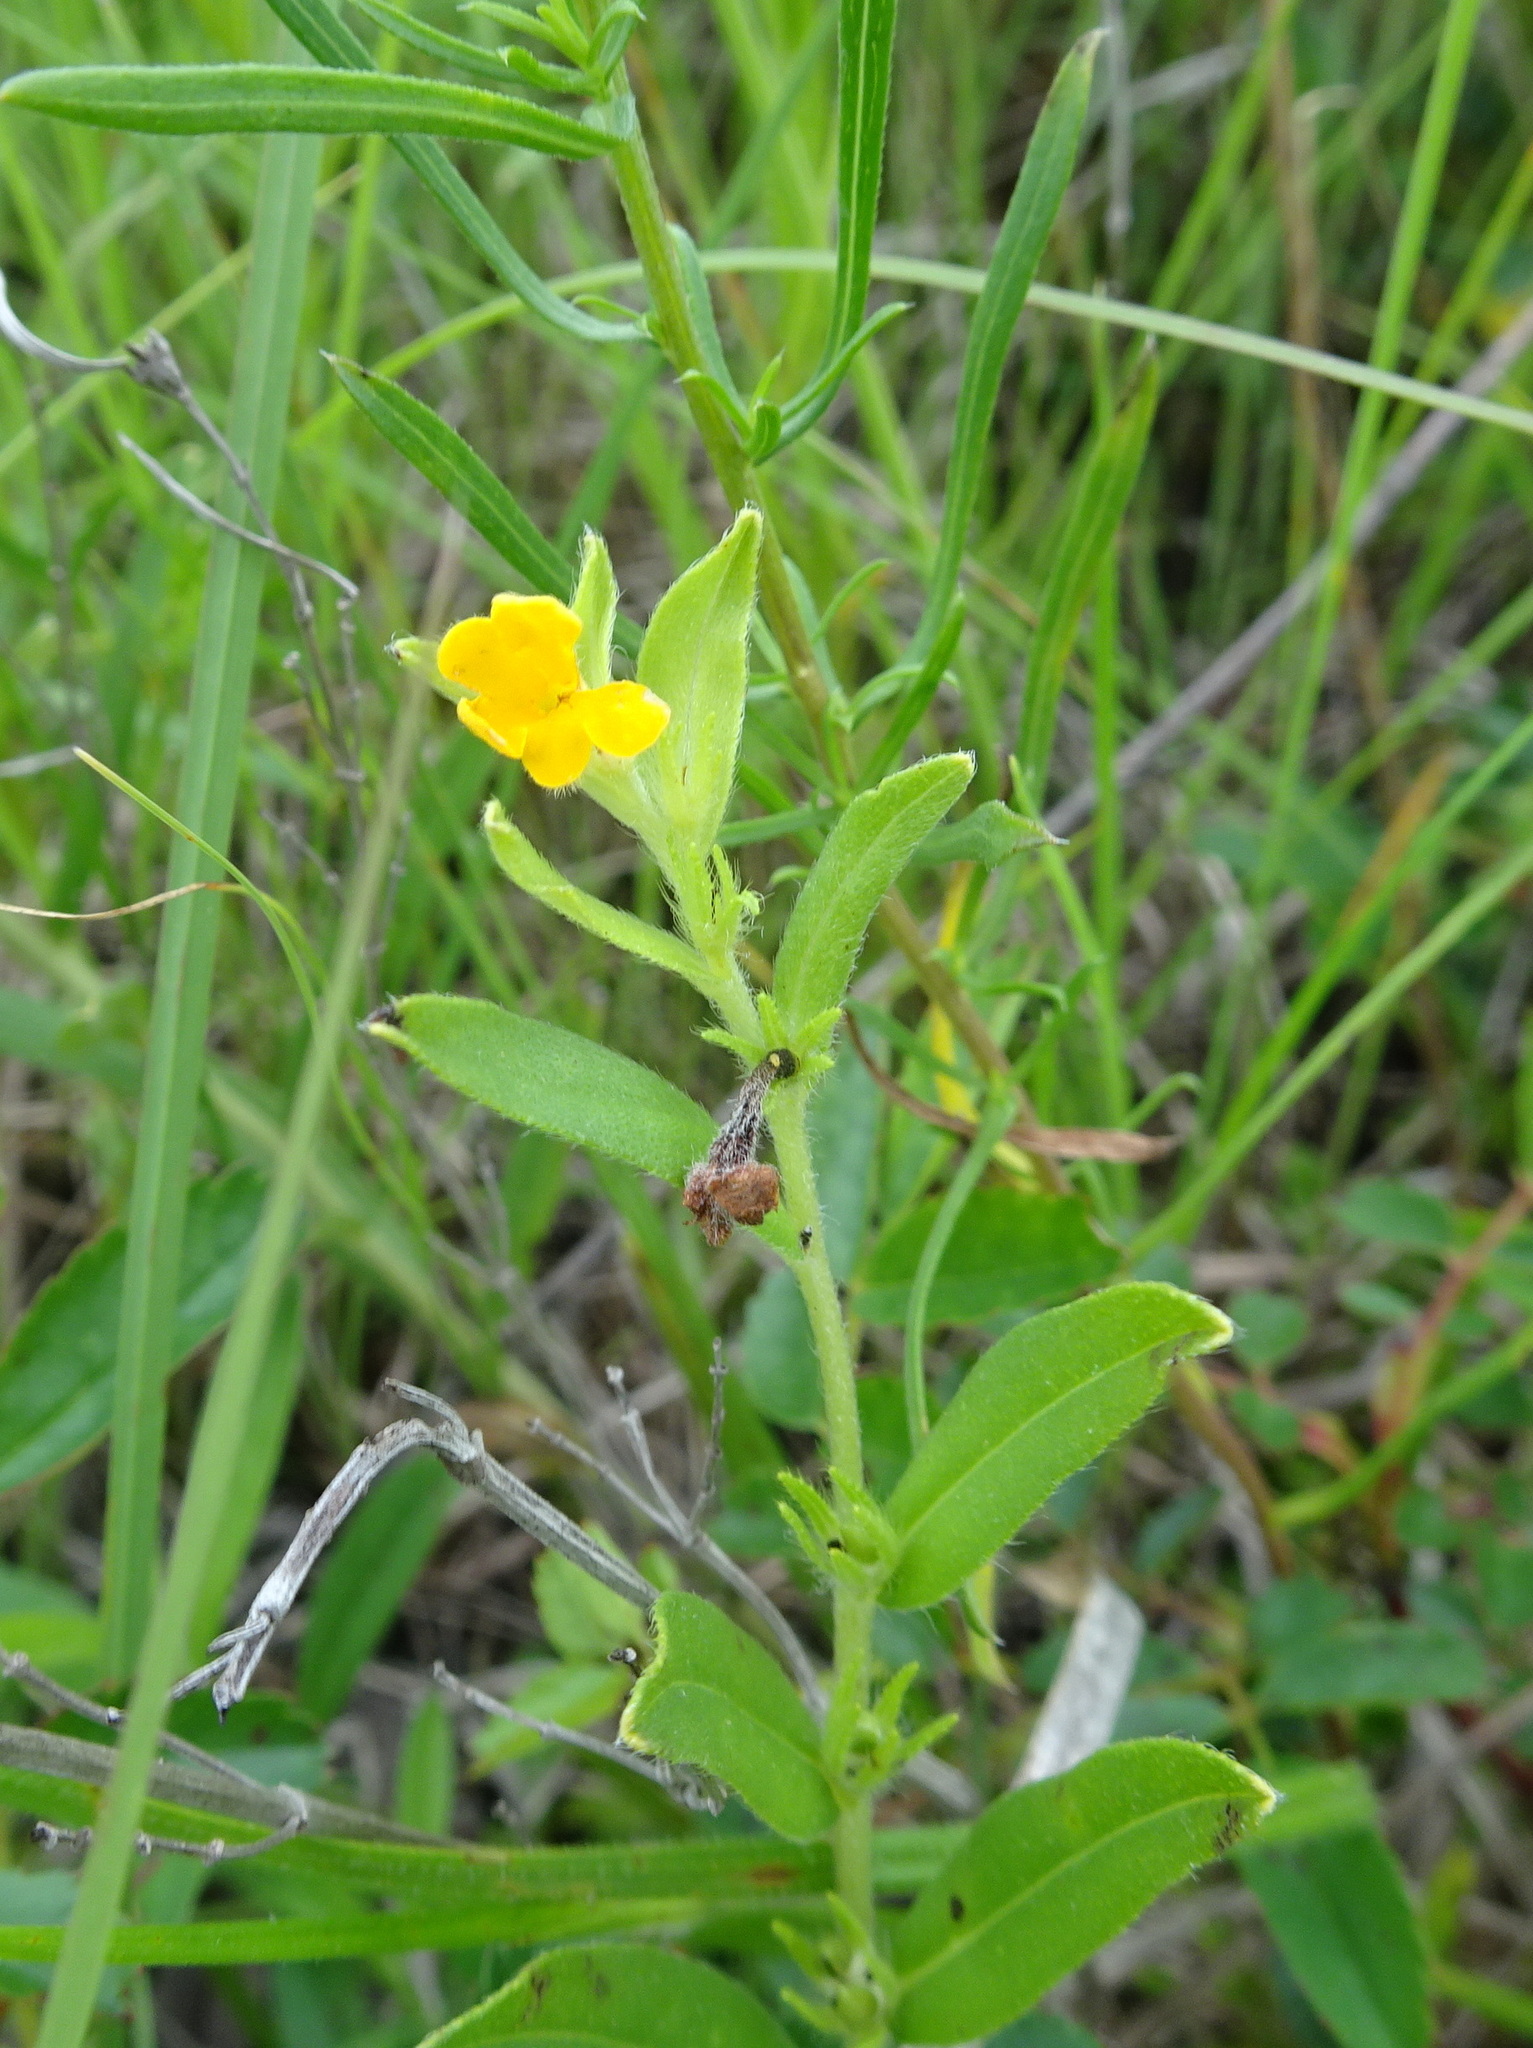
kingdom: Plantae
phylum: Tracheophyta
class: Magnoliopsida
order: Boraginales
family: Boraginaceae
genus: Lithospermum
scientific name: Lithospermum canescens
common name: Hoary puccoon
